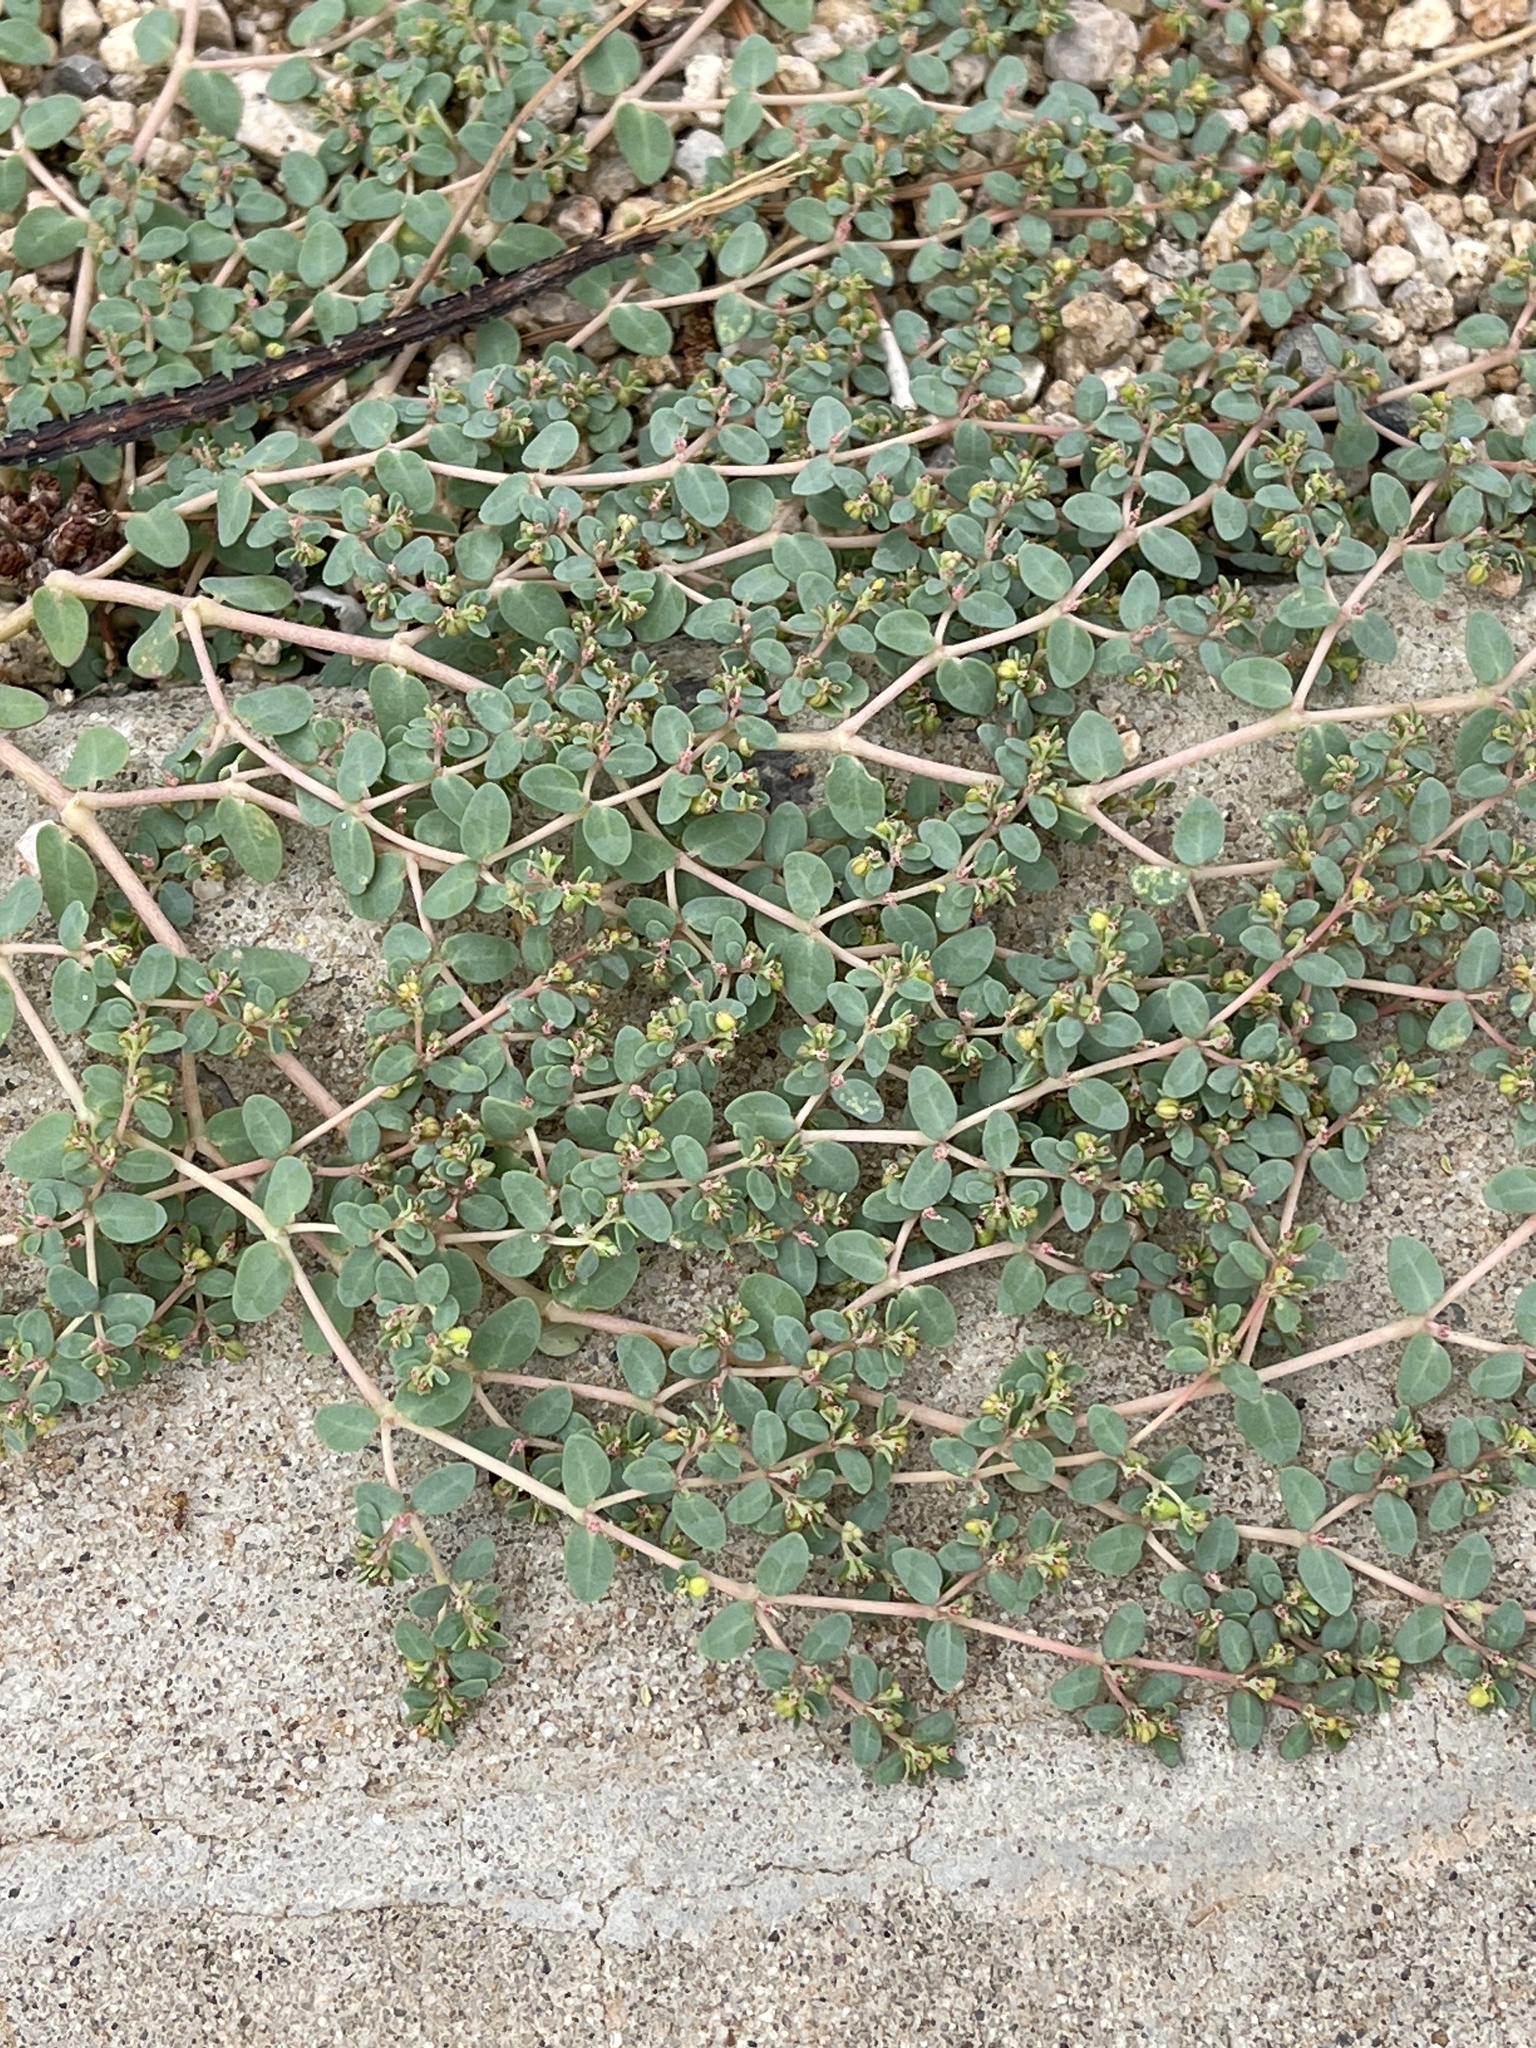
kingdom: Plantae
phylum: Tracheophyta
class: Magnoliopsida
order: Malpighiales
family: Euphorbiaceae
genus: Euphorbia
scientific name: Euphorbia micromera
